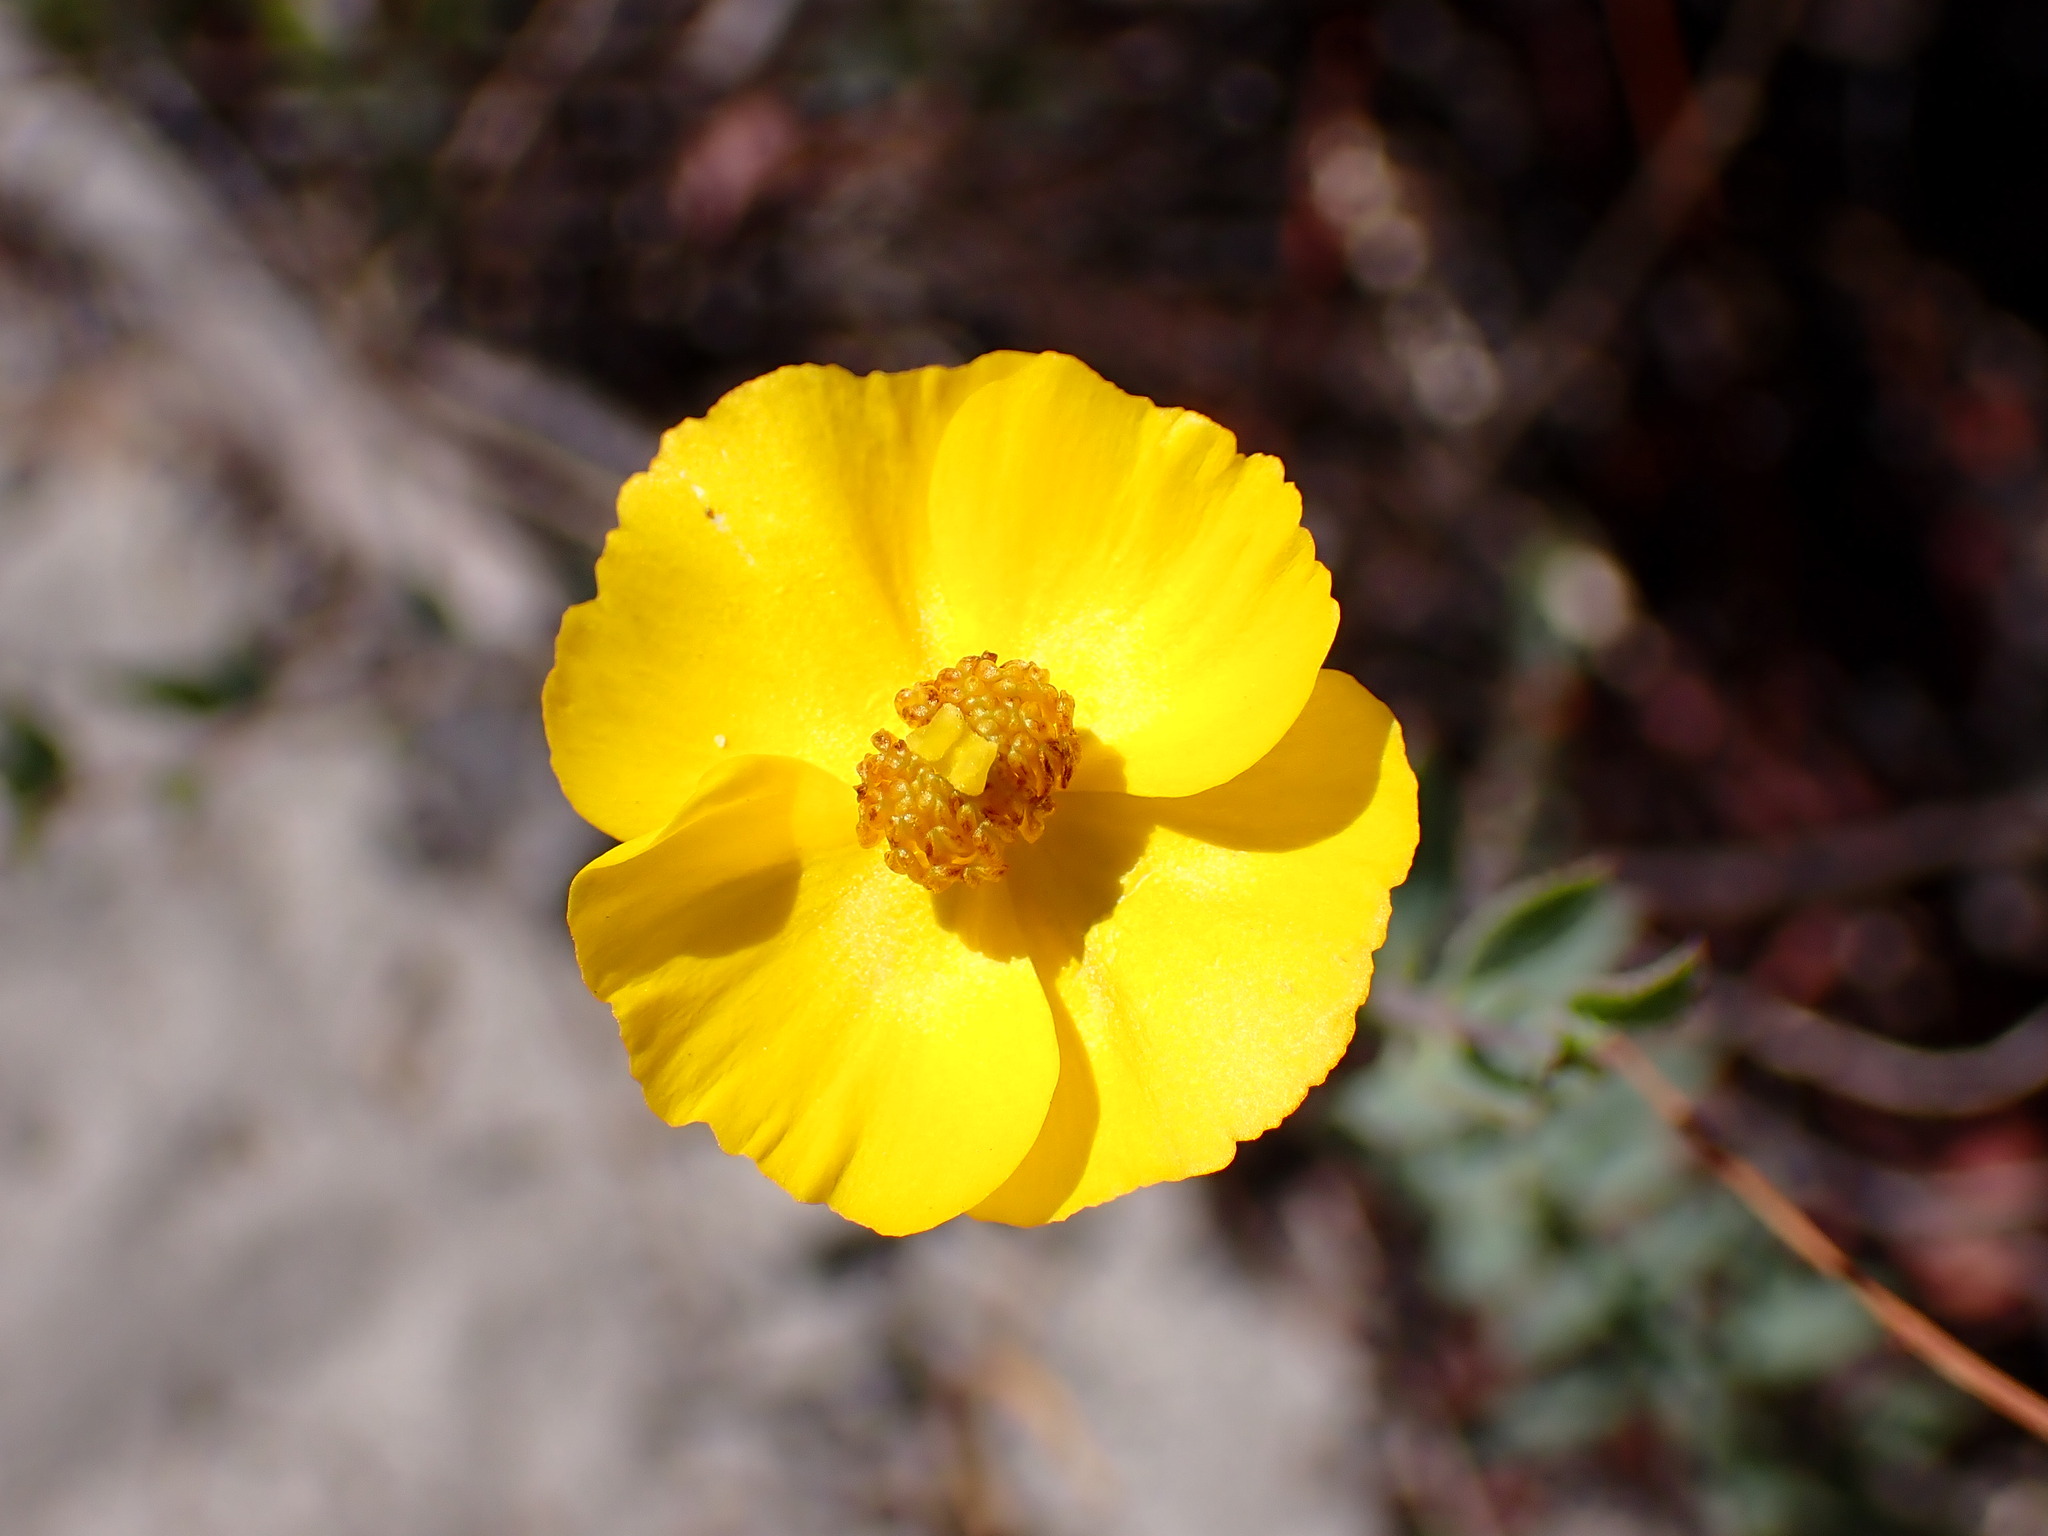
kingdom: Plantae
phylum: Tracheophyta
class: Magnoliopsida
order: Ranunculales
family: Papaveraceae
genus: Dendromecon
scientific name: Dendromecon rigida
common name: Tree poppy
